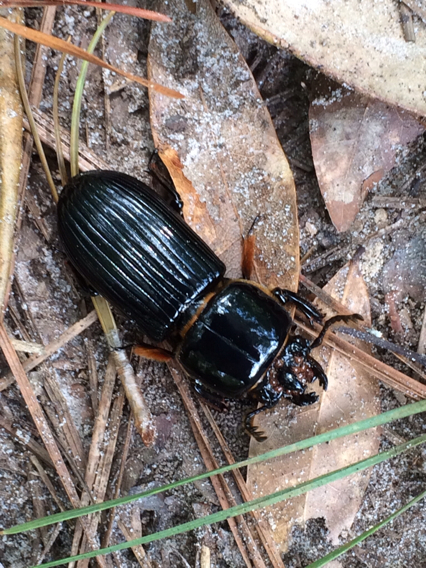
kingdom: Animalia
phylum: Arthropoda
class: Insecta
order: Coleoptera
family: Passalidae
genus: Odontotaenius
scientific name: Odontotaenius disjunctus
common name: Patent leather beetle
